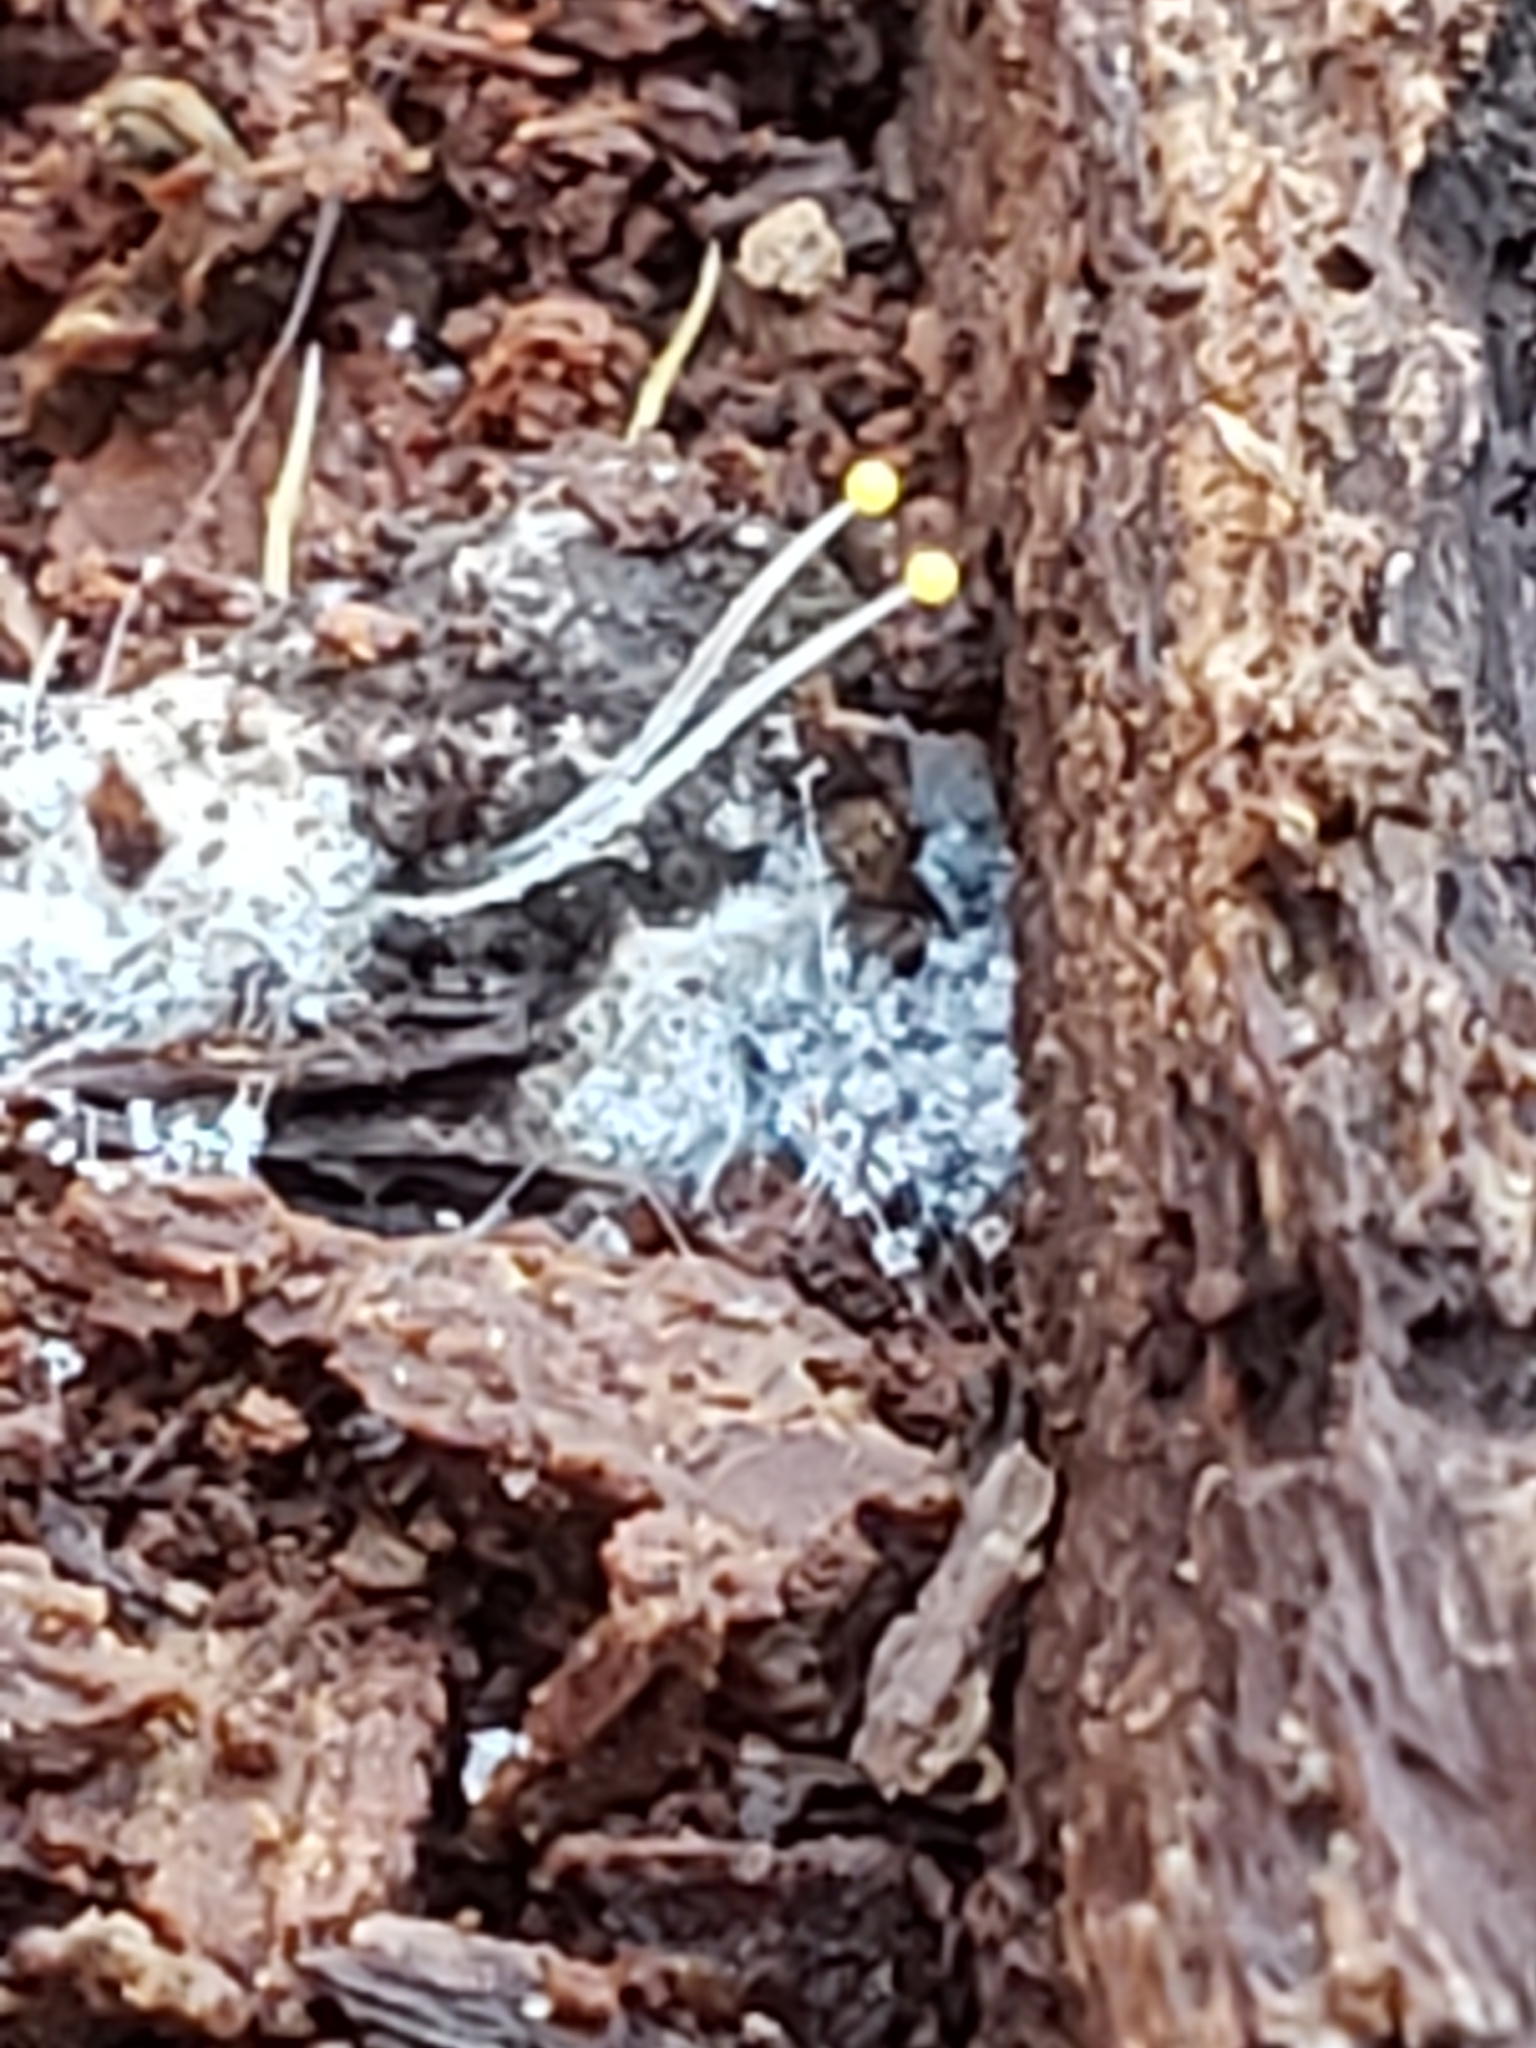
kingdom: Fungi
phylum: Mucoromycota
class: Mucoromycetes
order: Mucorales
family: Phycomycetaceae
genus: Phycomyces
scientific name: Phycomyces
